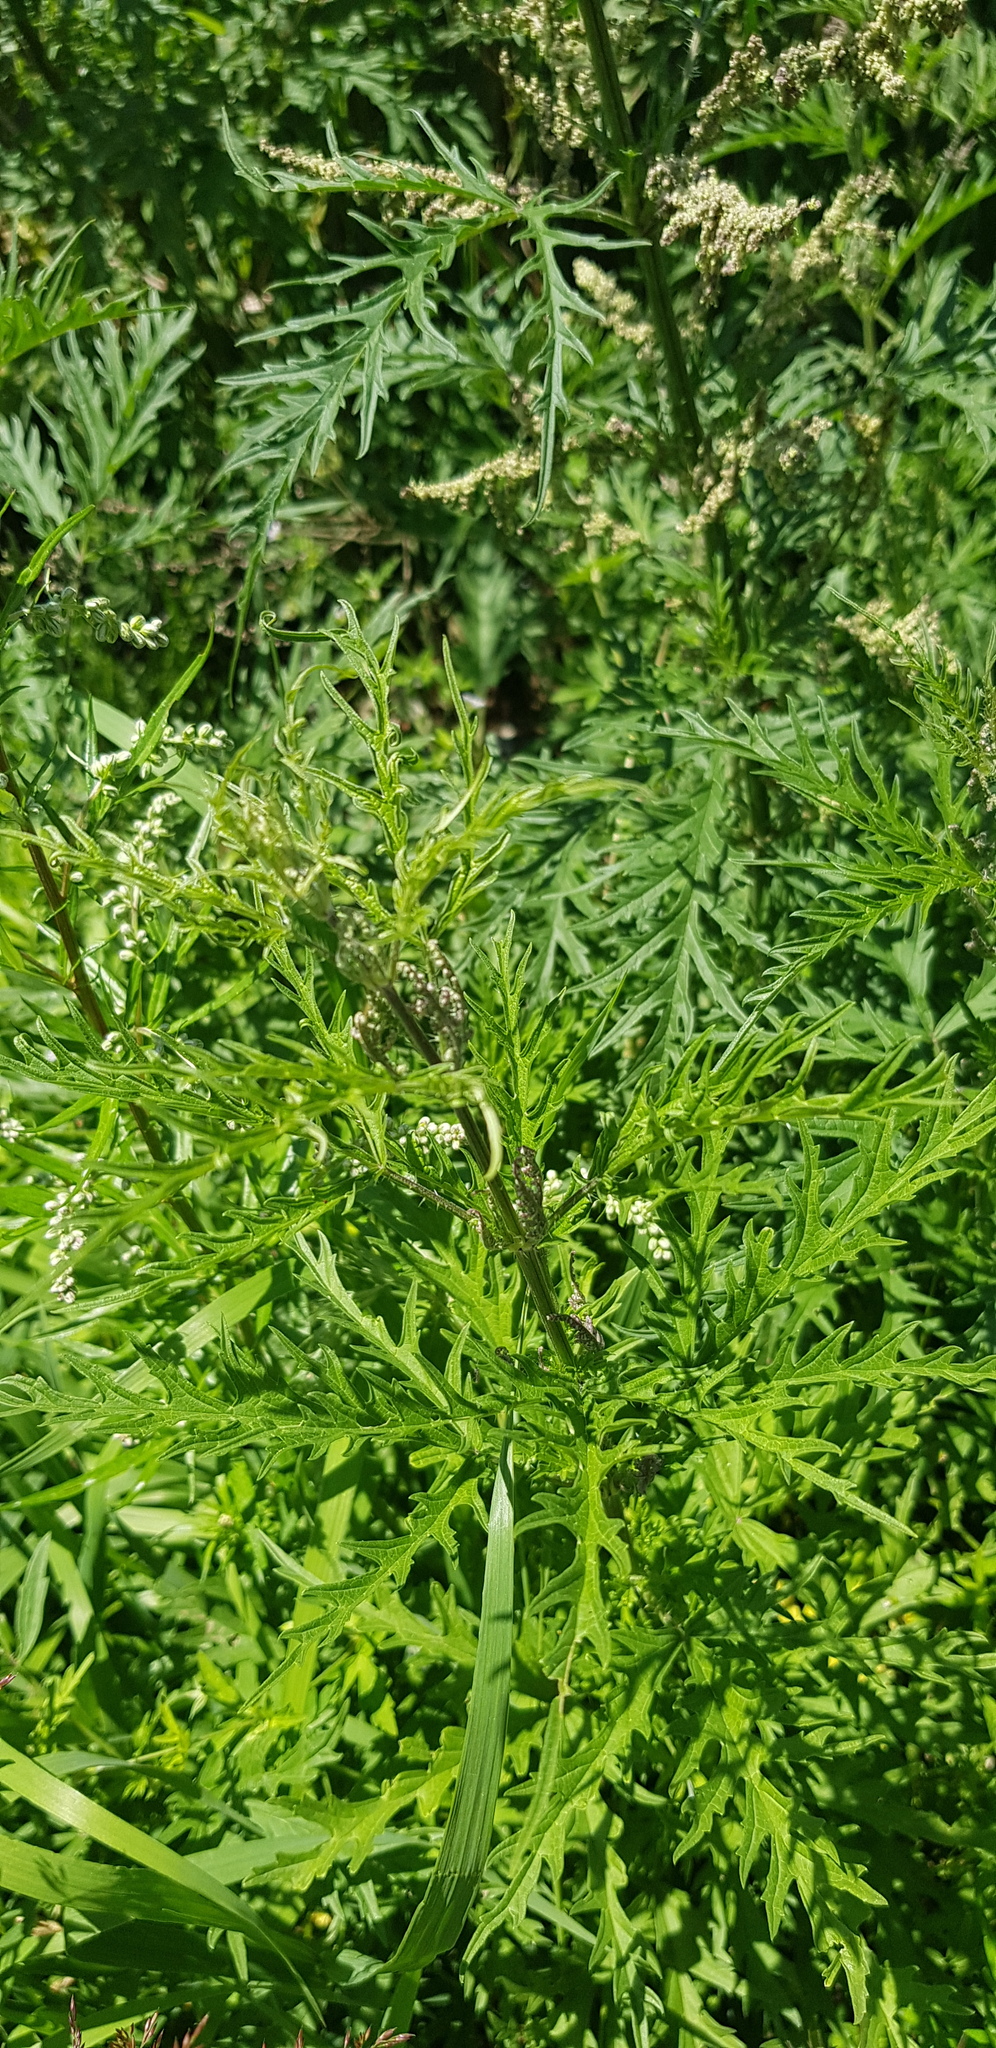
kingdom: Plantae
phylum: Tracheophyta
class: Magnoliopsida
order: Rosales
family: Urticaceae
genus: Urtica
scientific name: Urtica cannabina
